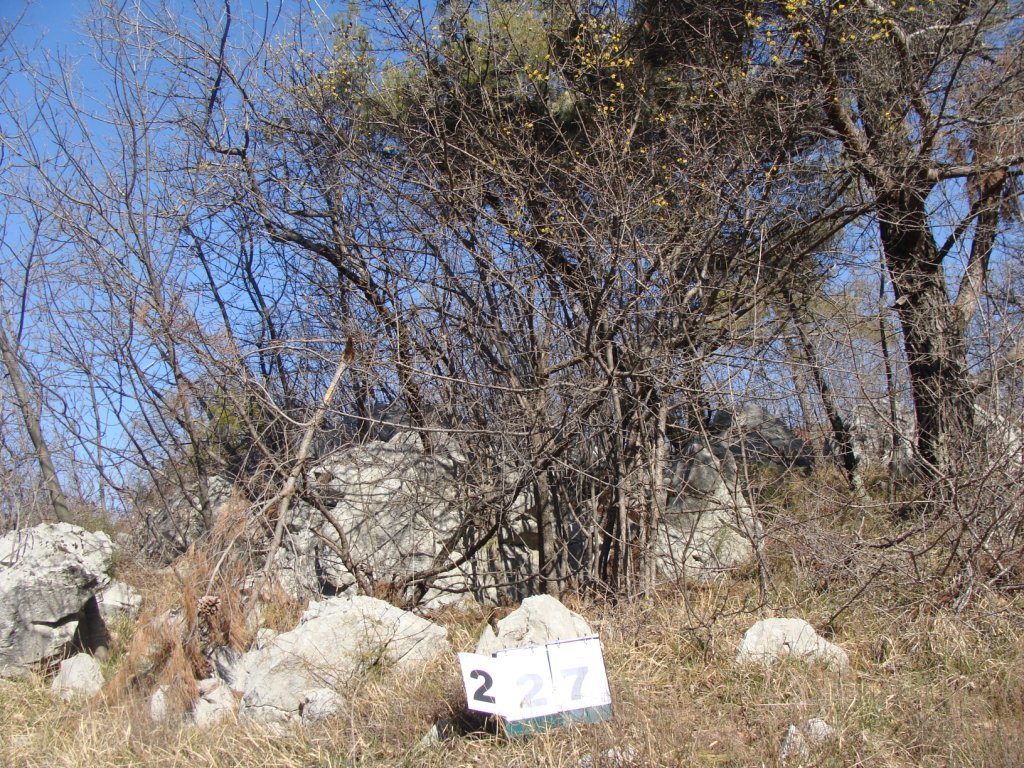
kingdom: Plantae
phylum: Tracheophyta
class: Magnoliopsida
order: Cornales
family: Cornaceae
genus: Cornus
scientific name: Cornus mas
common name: Cornelian-cherry
